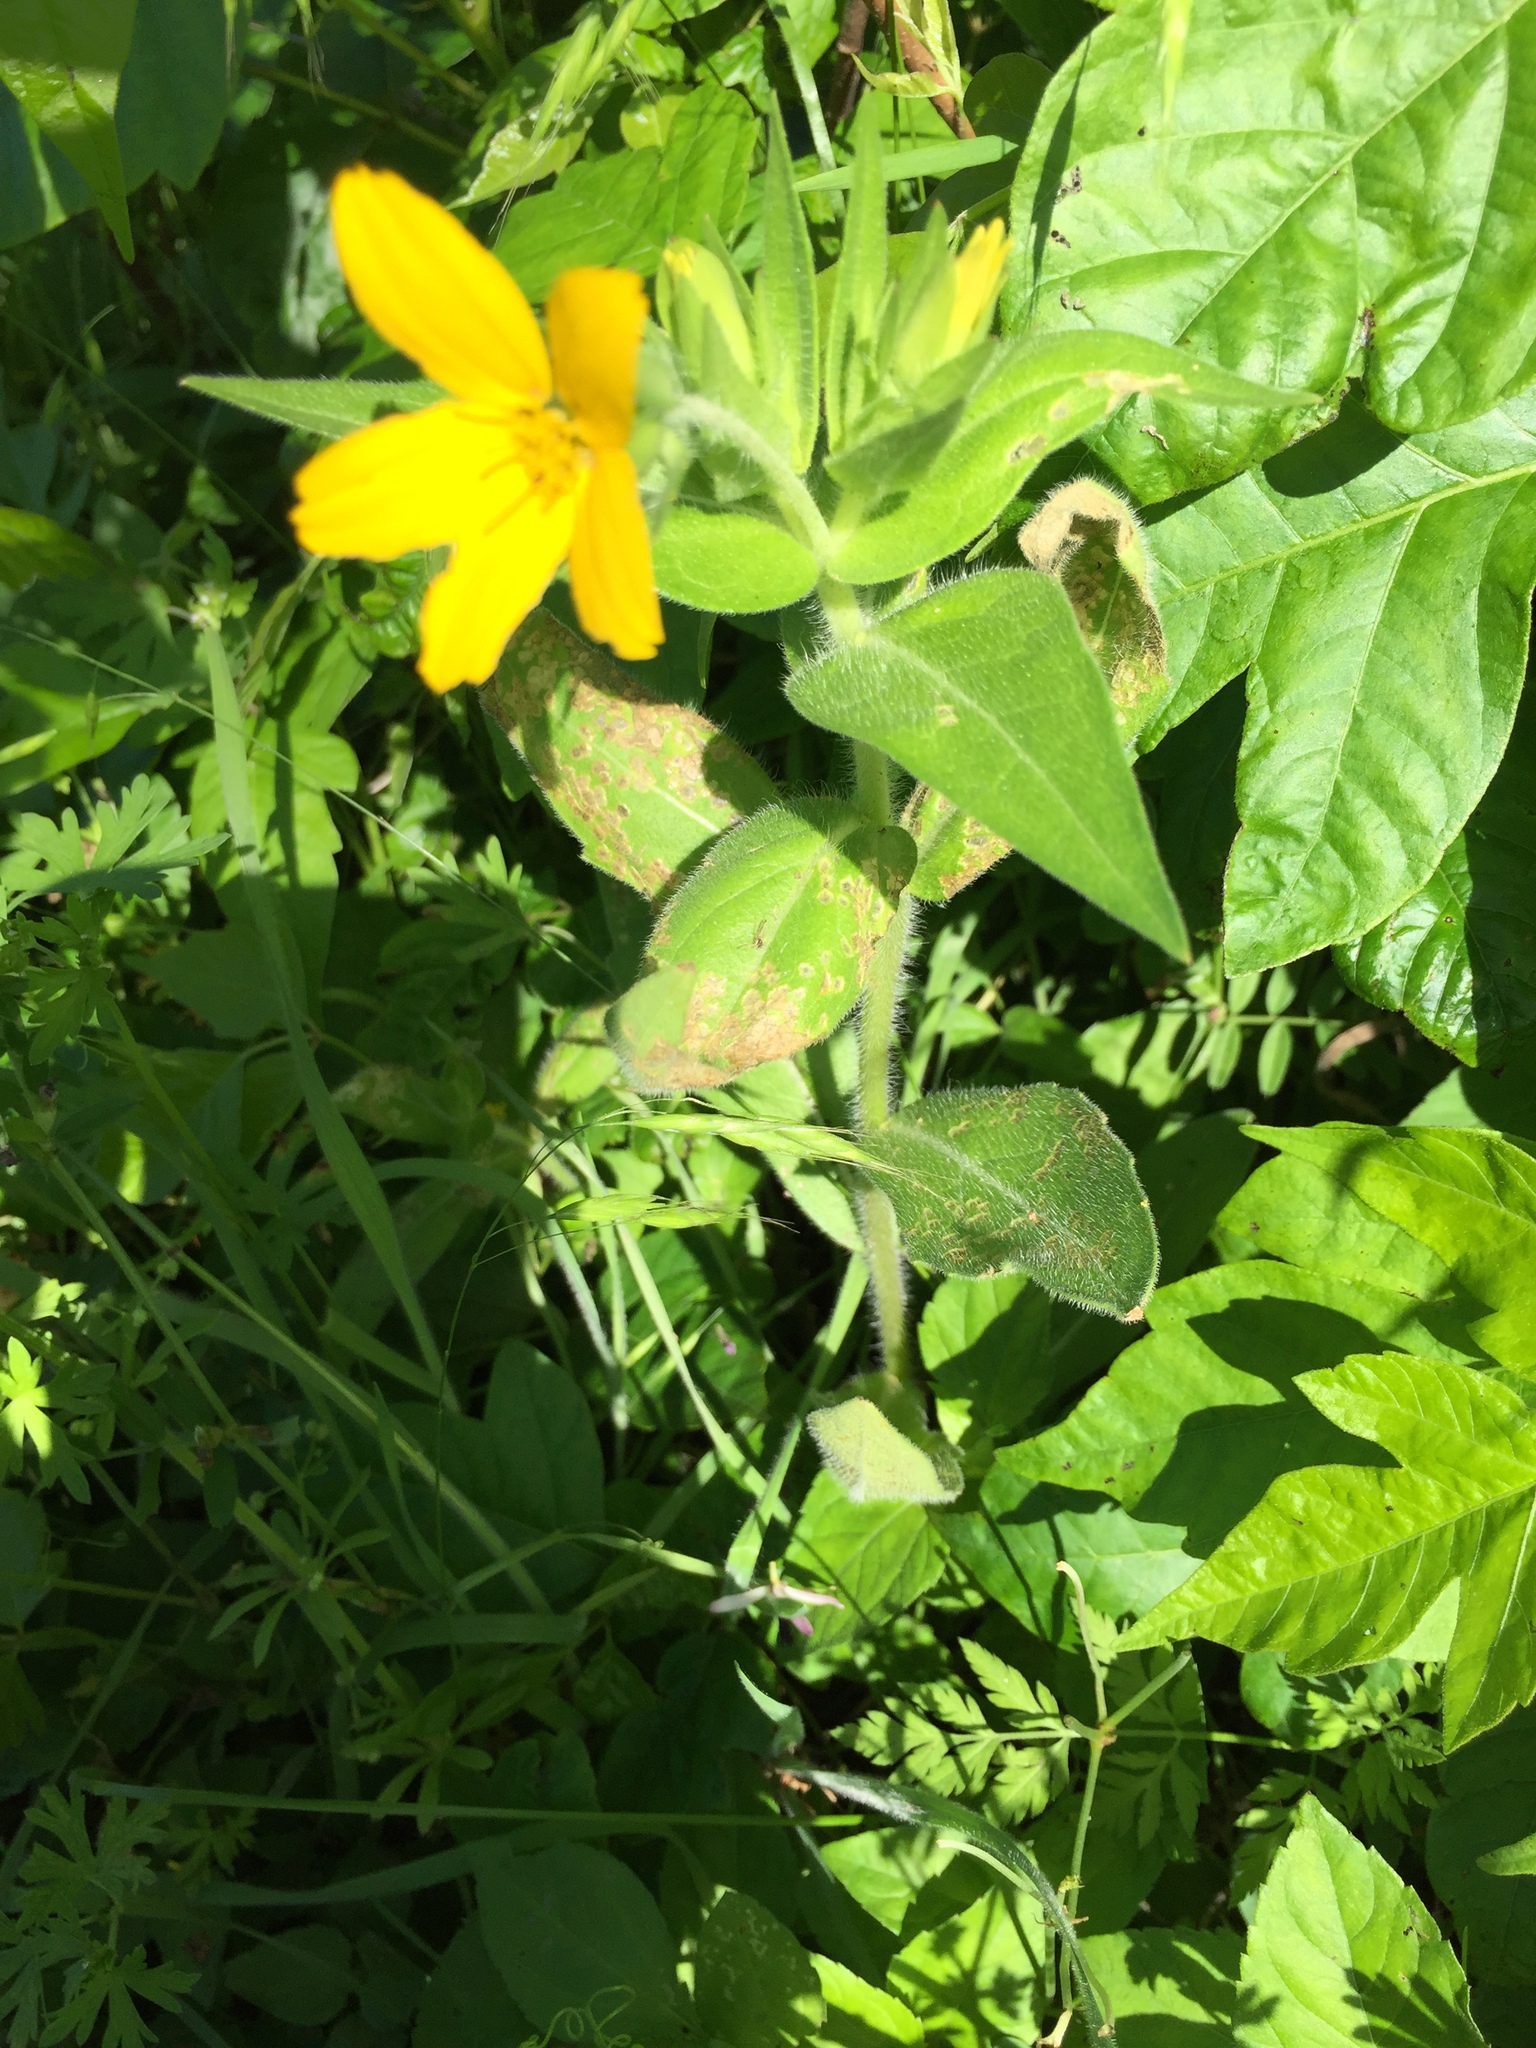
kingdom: Plantae
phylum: Tracheophyta
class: Magnoliopsida
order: Asterales
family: Asteraceae
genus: Lindheimera
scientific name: Lindheimera texana
